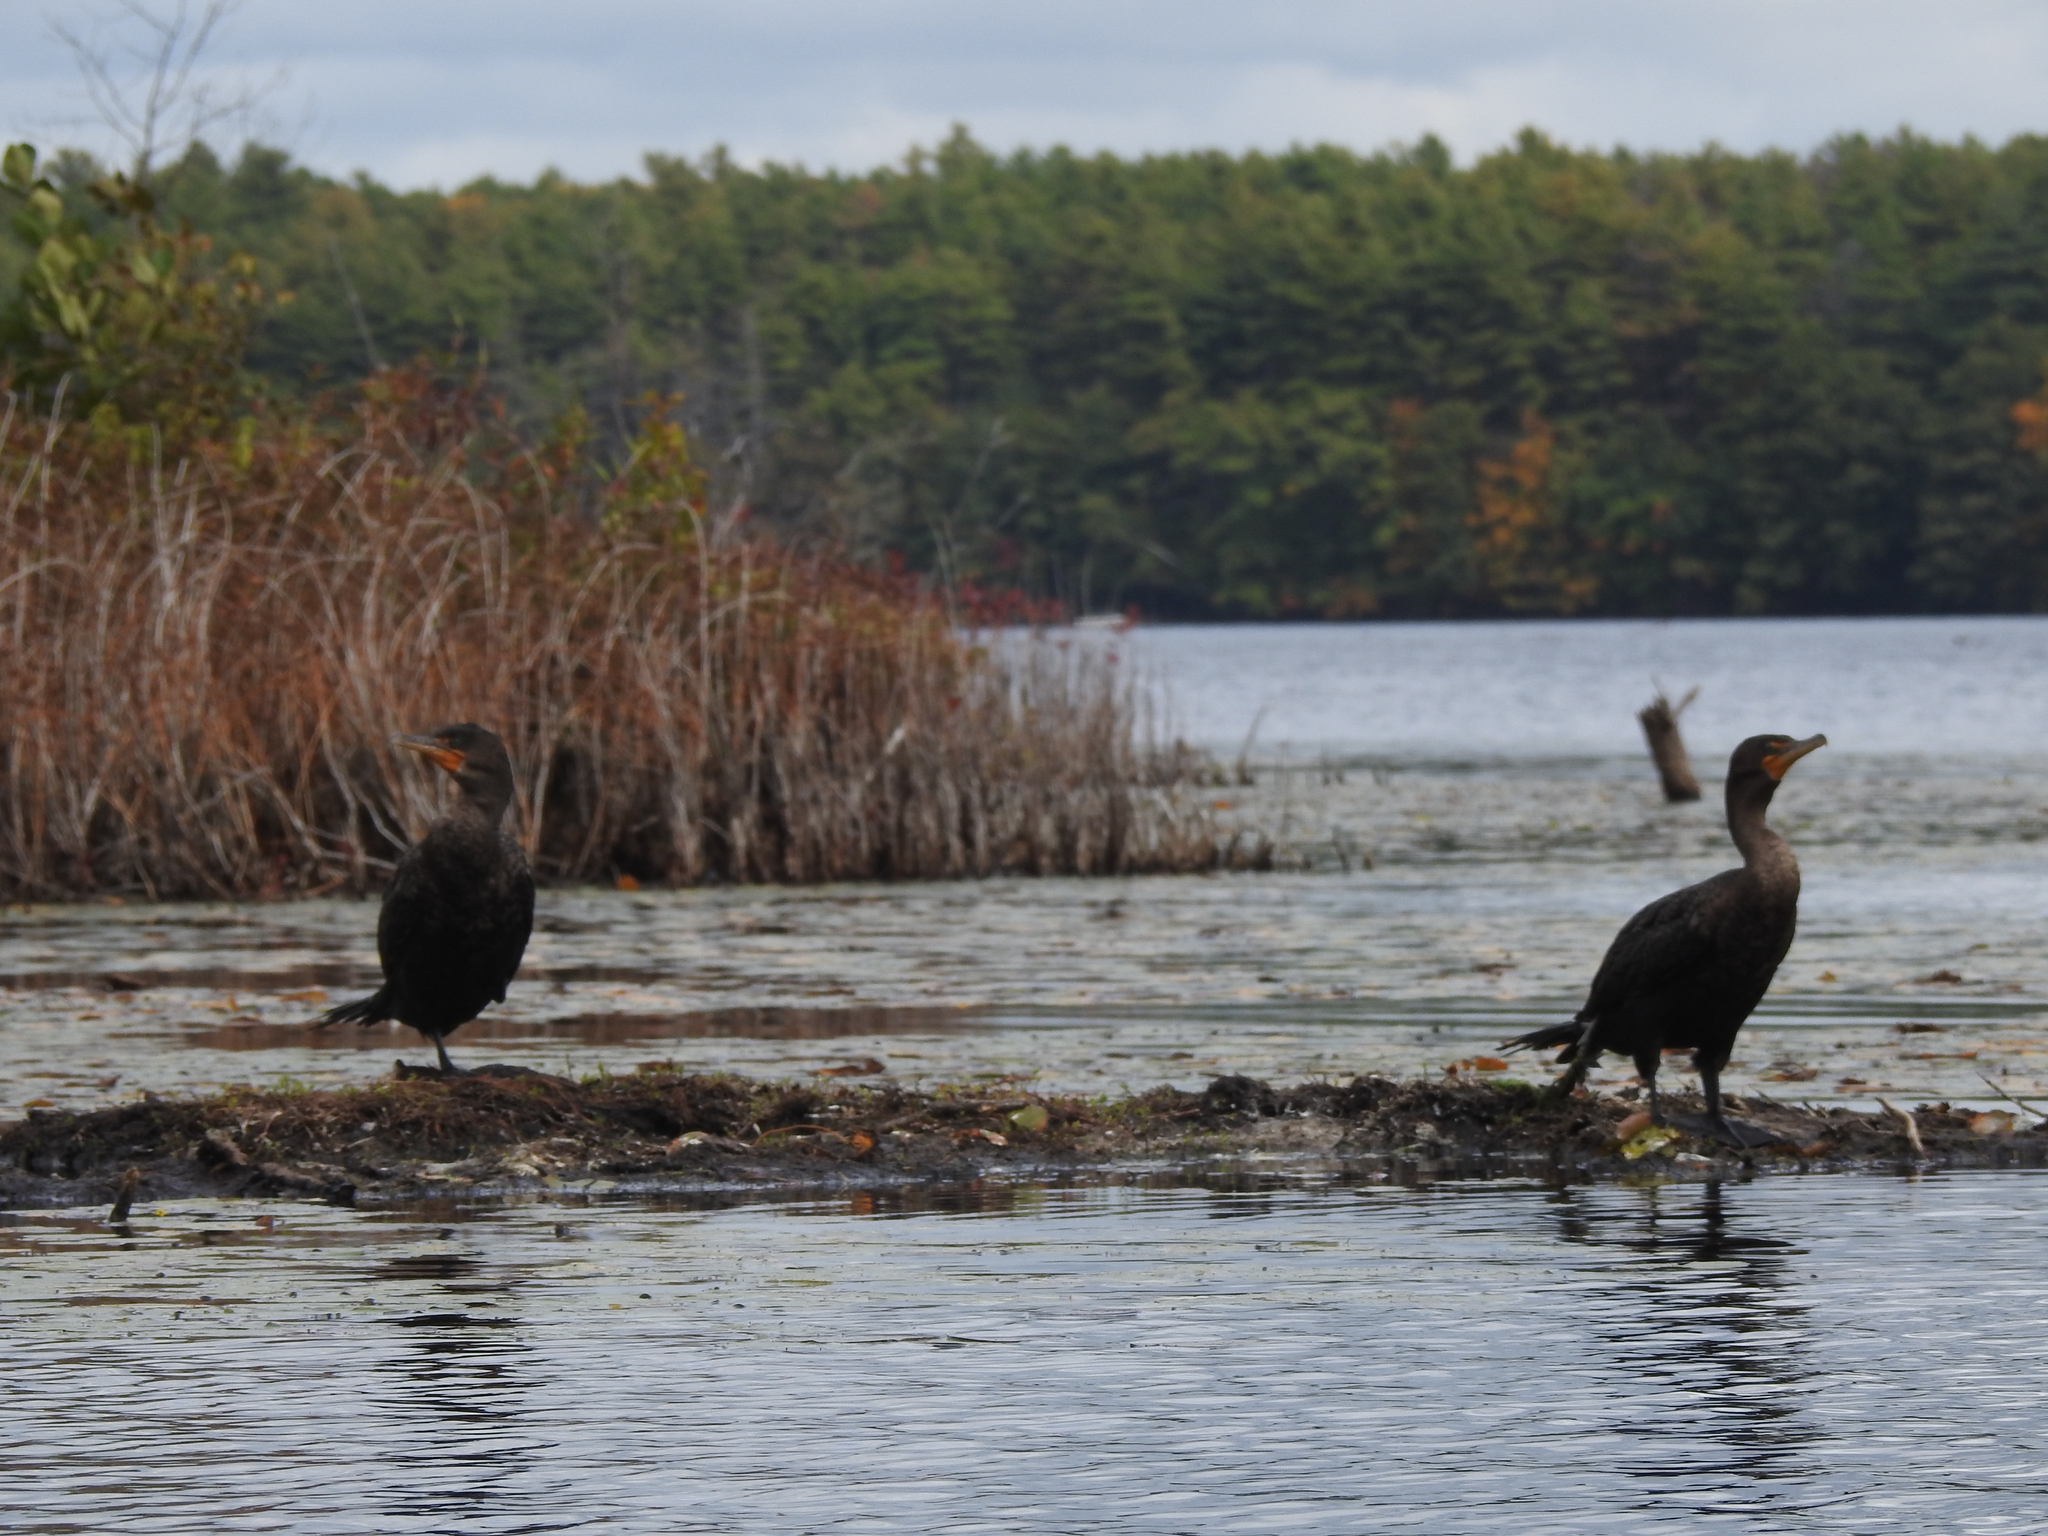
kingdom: Animalia
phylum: Chordata
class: Aves
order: Suliformes
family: Phalacrocoracidae
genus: Phalacrocorax
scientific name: Phalacrocorax auritus
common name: Double-crested cormorant
